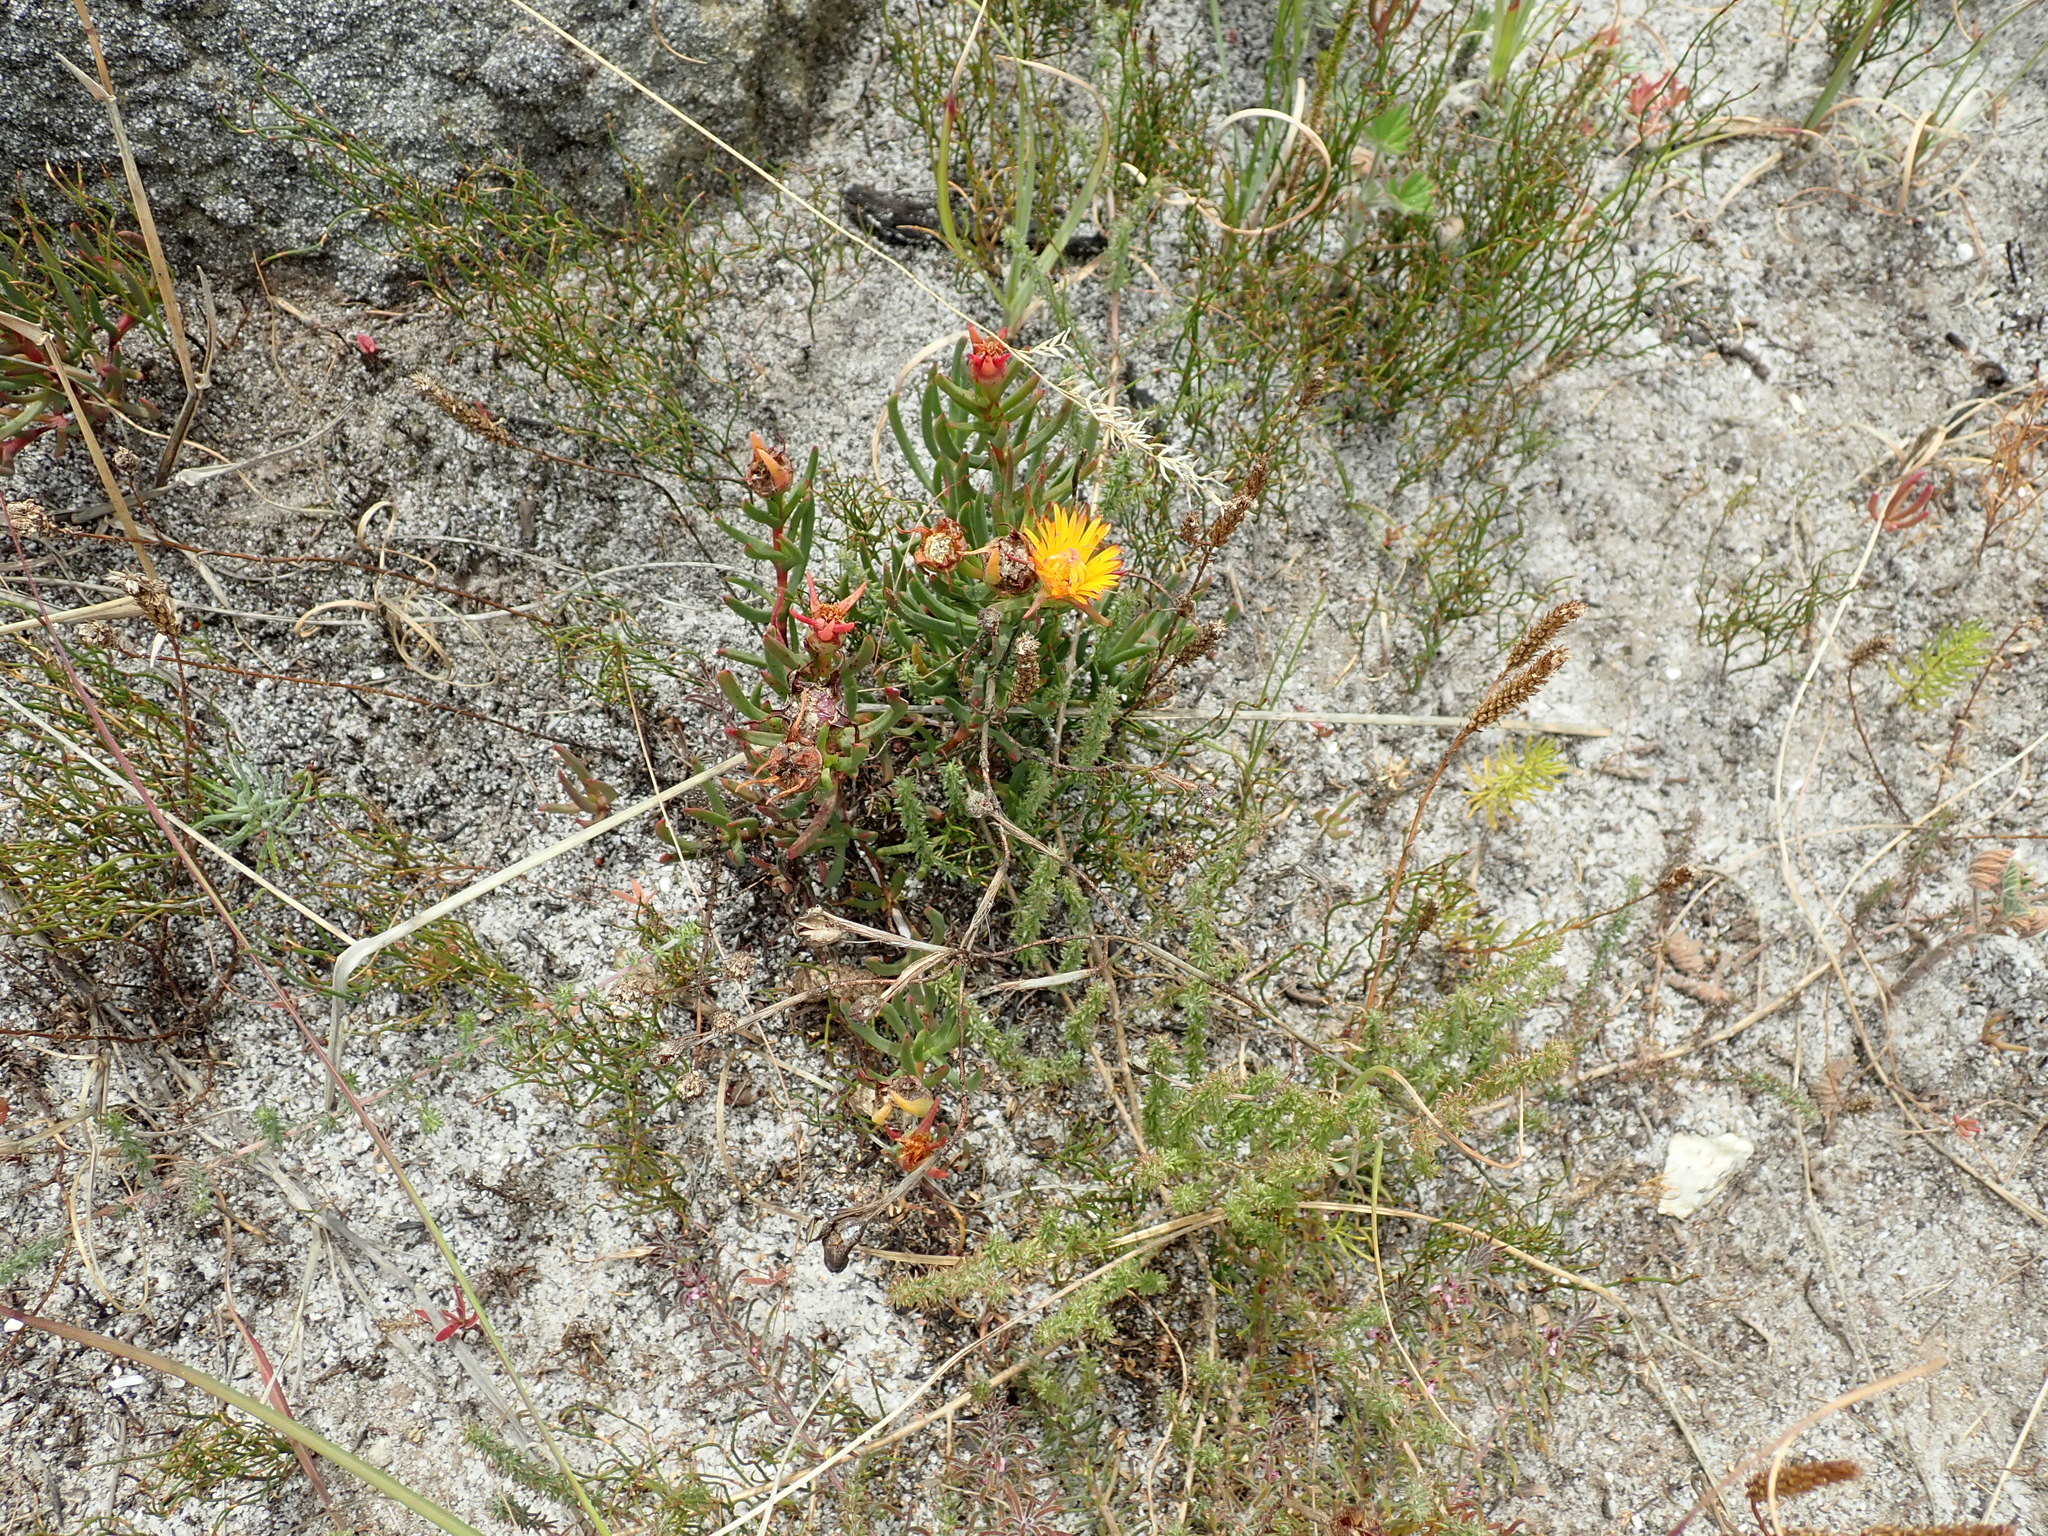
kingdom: Plantae
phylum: Tracheophyta
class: Magnoliopsida
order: Caryophyllales
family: Aizoaceae
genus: Lampranthus
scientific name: Lampranthus bicolor
